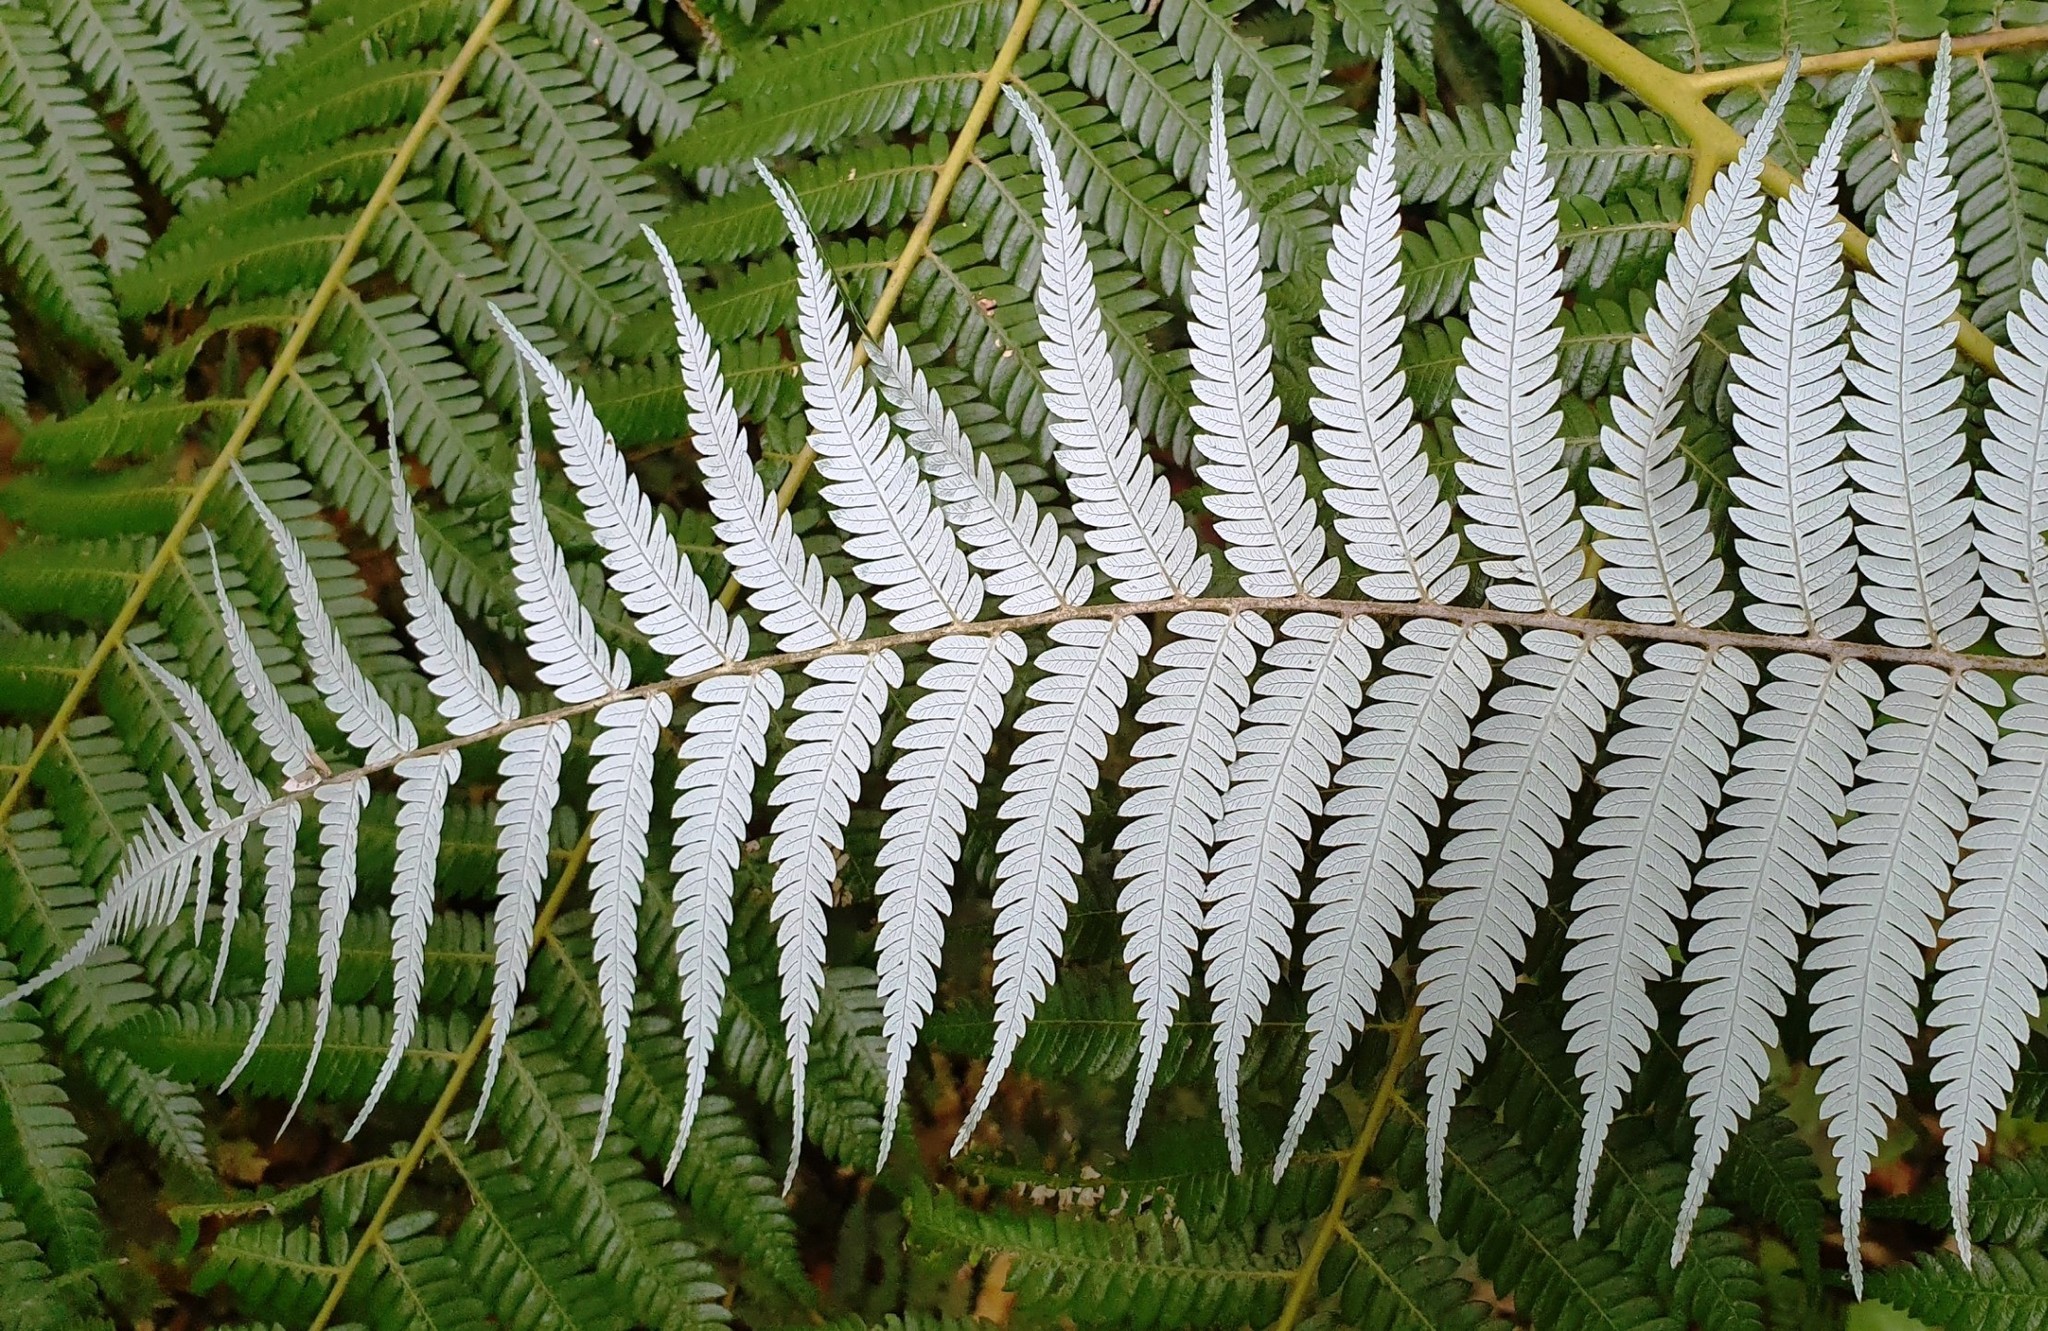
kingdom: Plantae
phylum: Tracheophyta
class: Polypodiopsida
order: Cyatheales
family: Cyatheaceae
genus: Alsophila
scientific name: Alsophila dealbata
